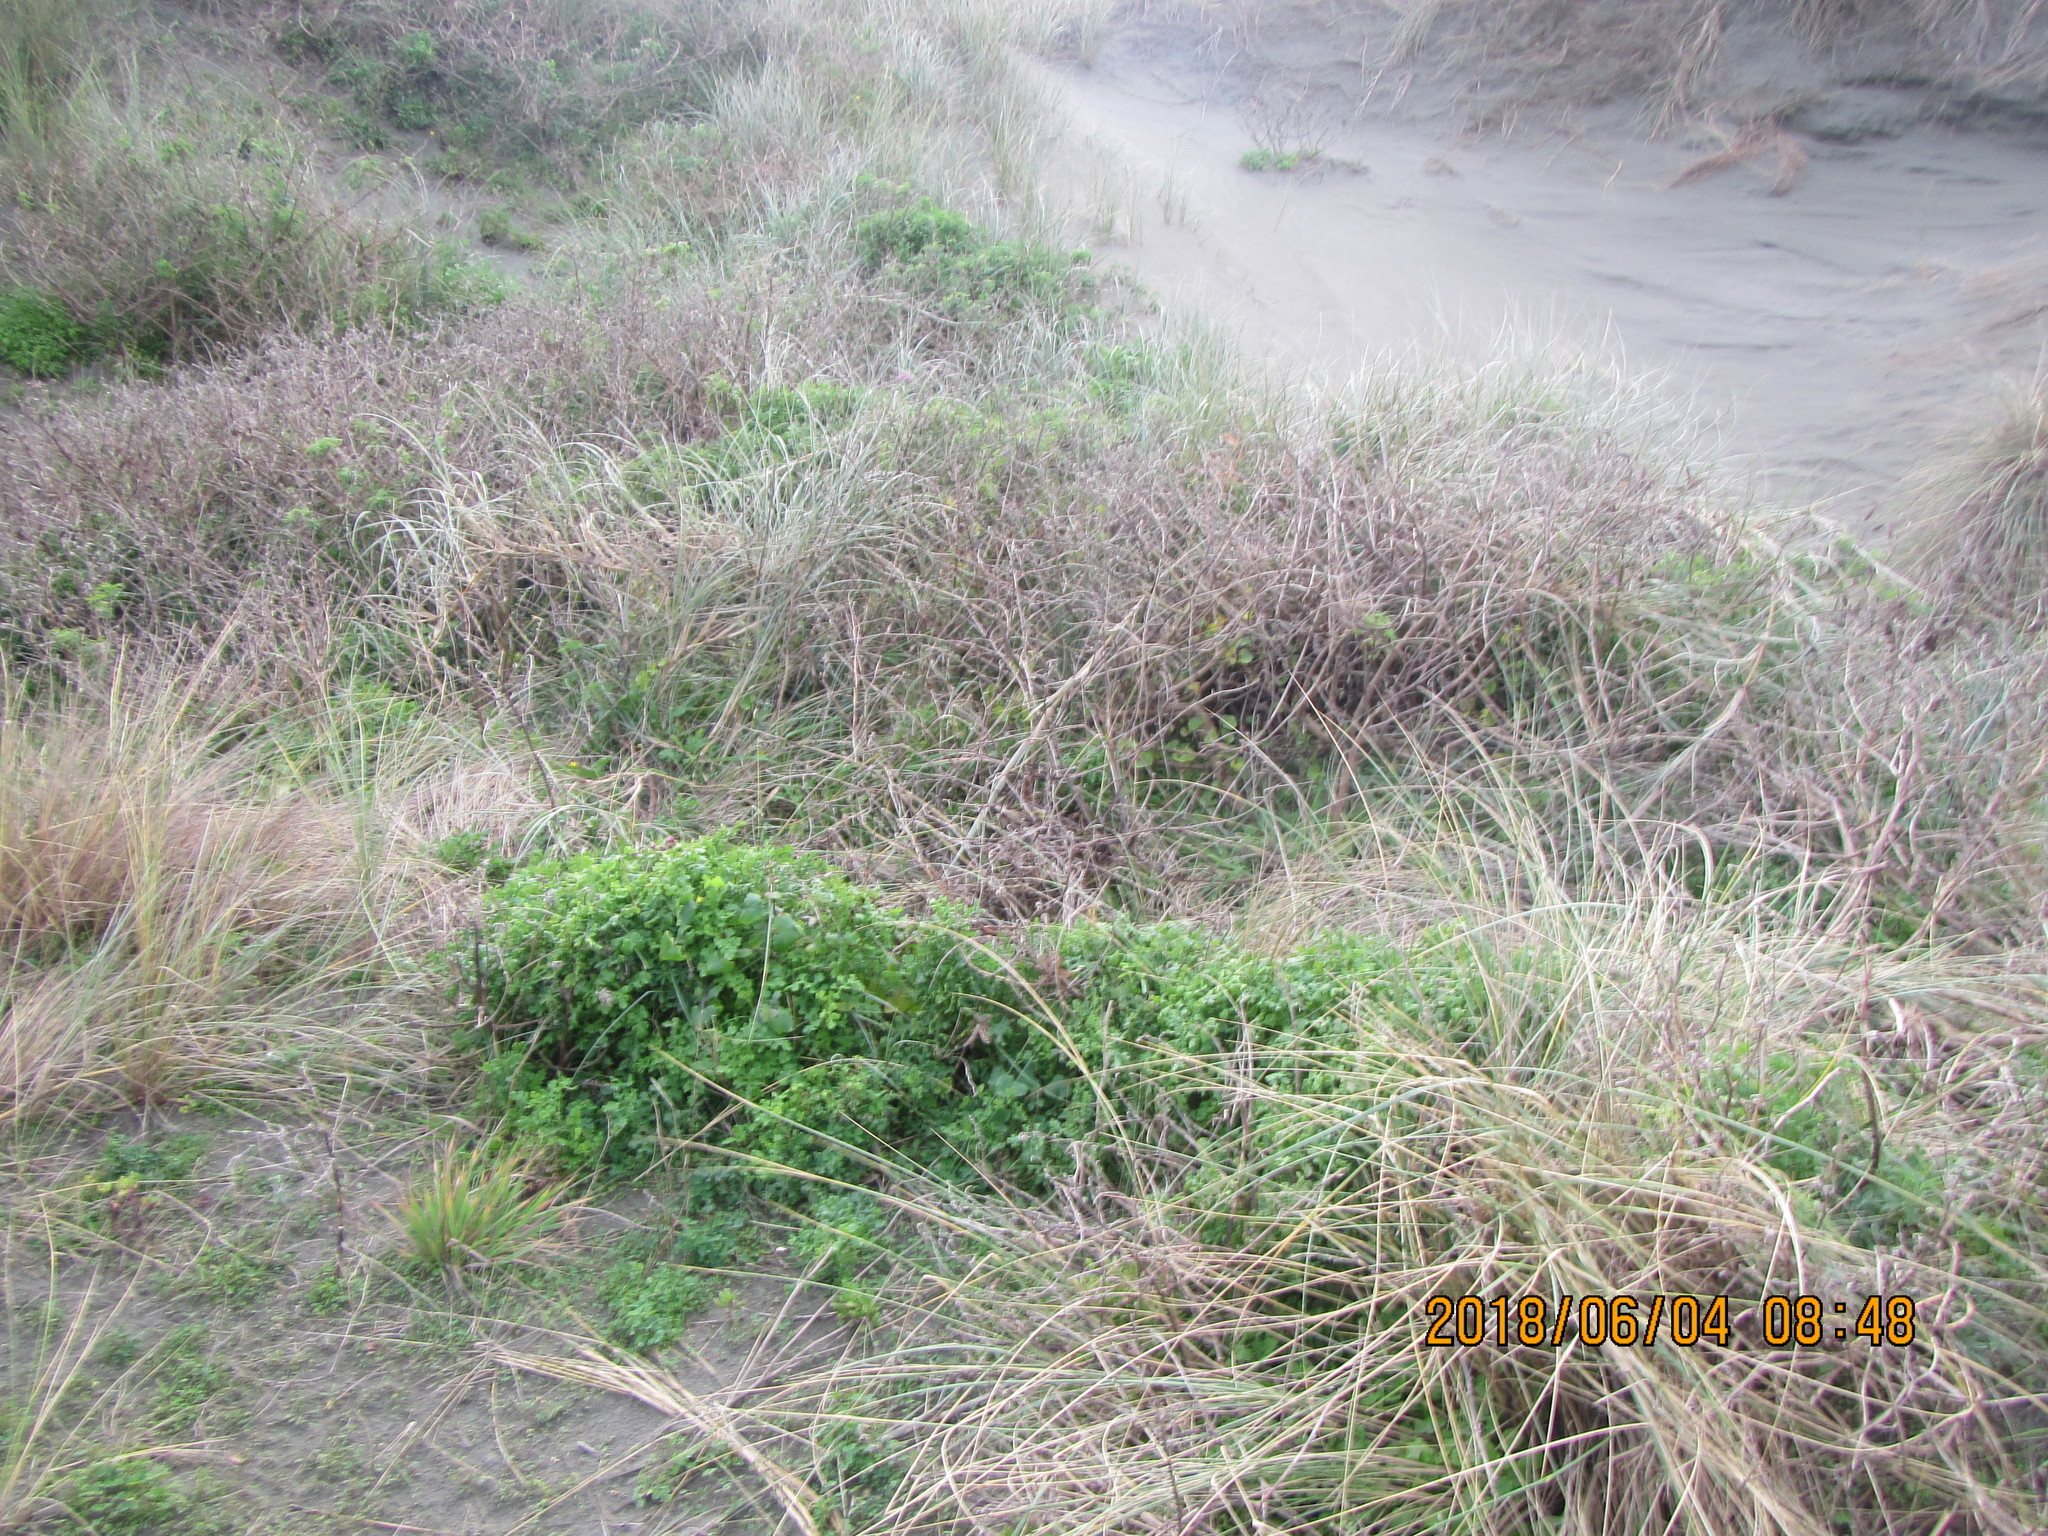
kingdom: Plantae
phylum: Tracheophyta
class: Magnoliopsida
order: Asterales
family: Asteraceae
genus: Senecio
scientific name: Senecio elegans
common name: Purple groundsel
